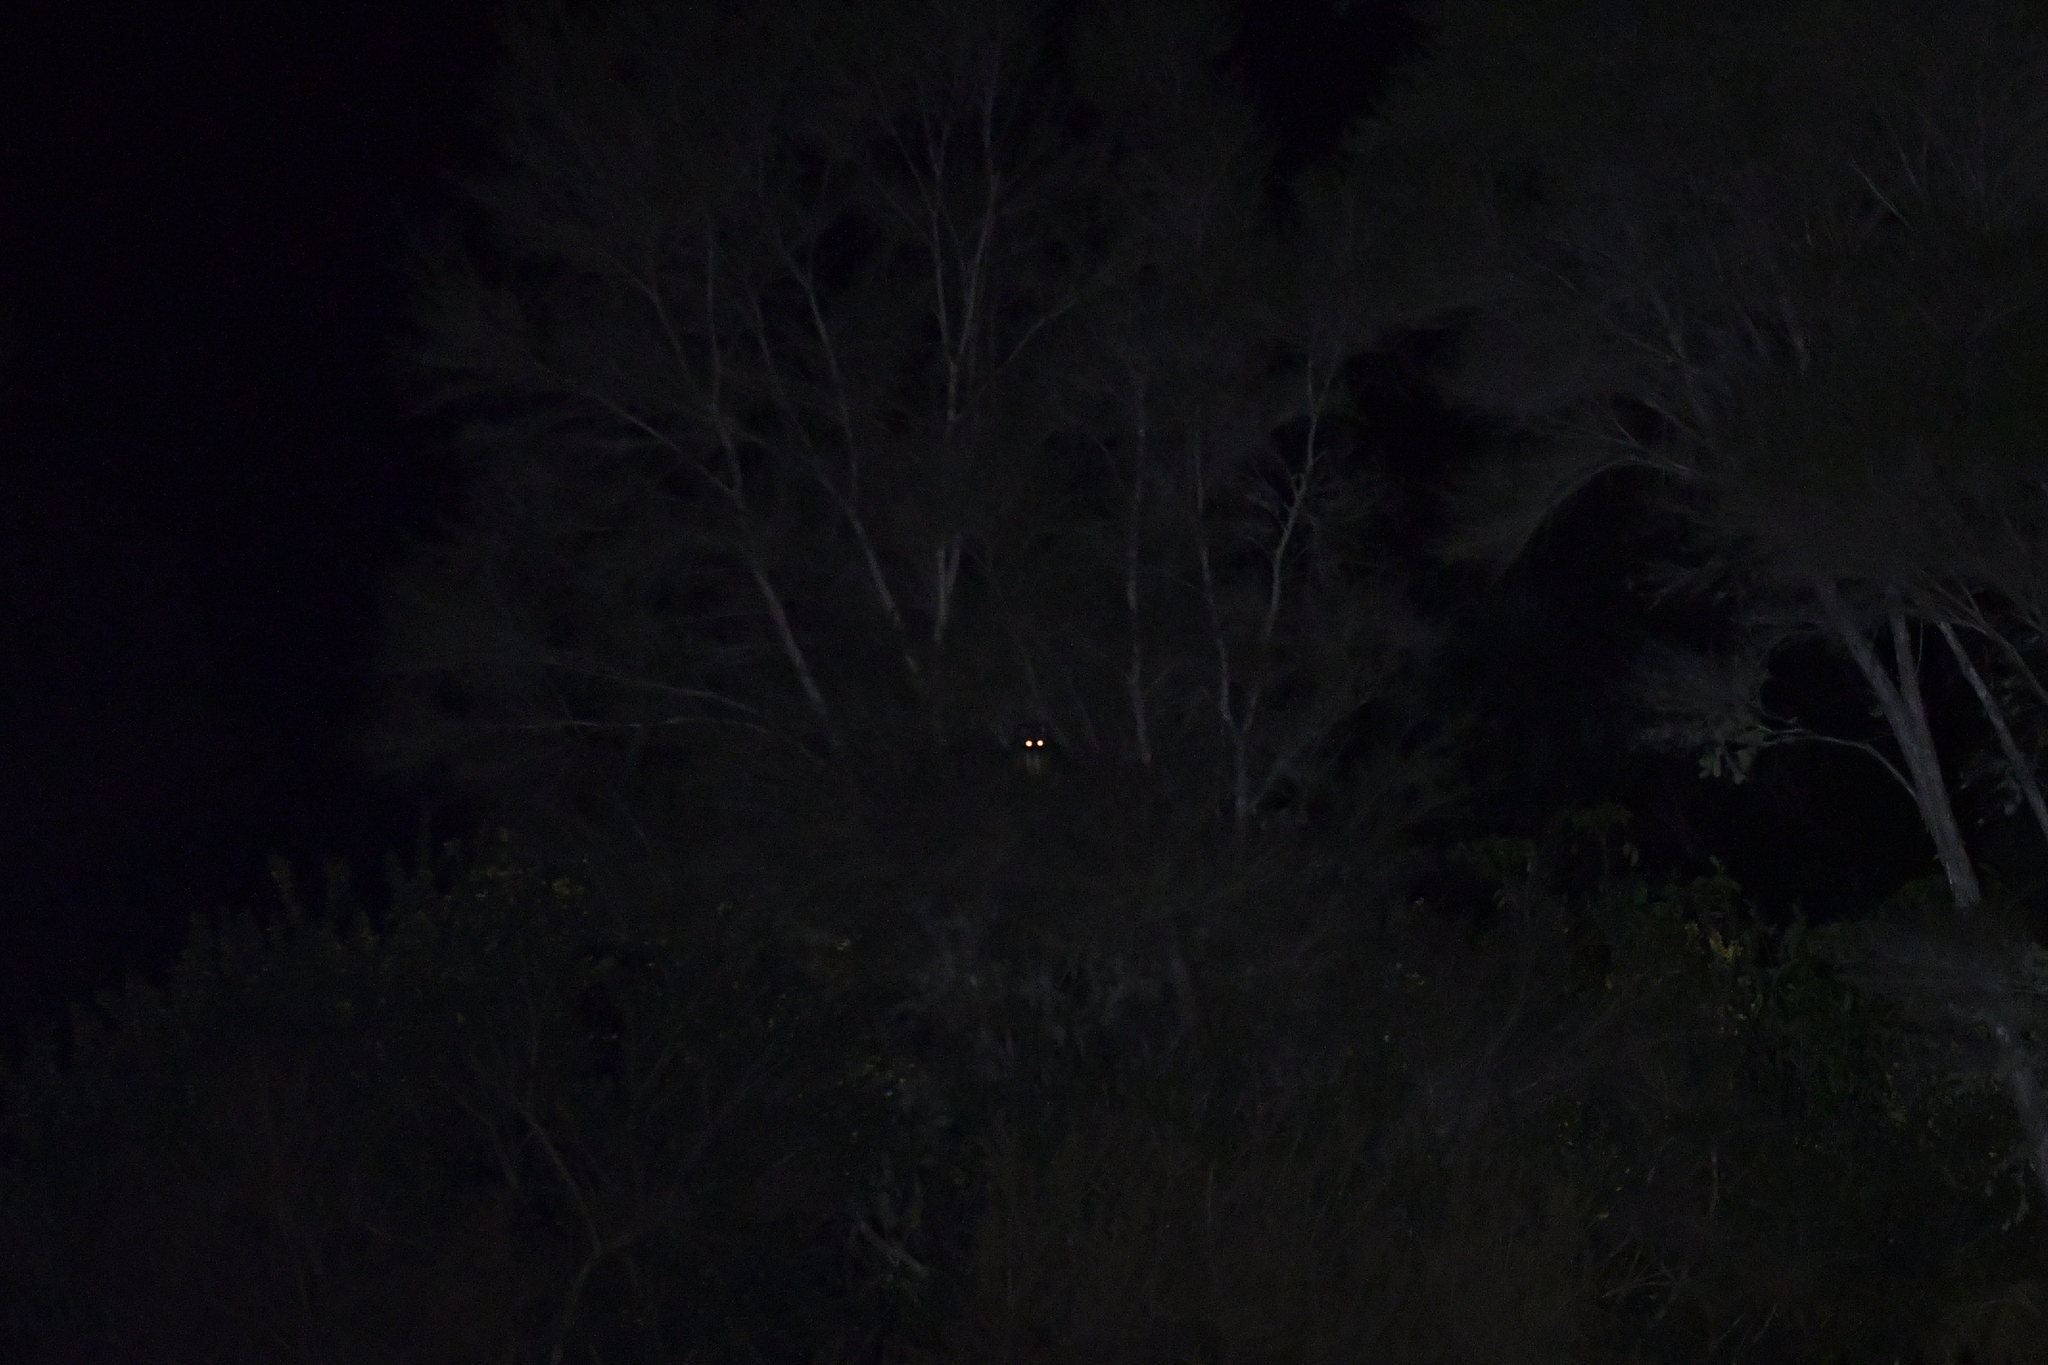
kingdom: Animalia
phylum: Chordata
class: Mammalia
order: Diprotodontia
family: Phalangeridae
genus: Trichosurus
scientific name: Trichosurus vulpecula
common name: Common brushtail
